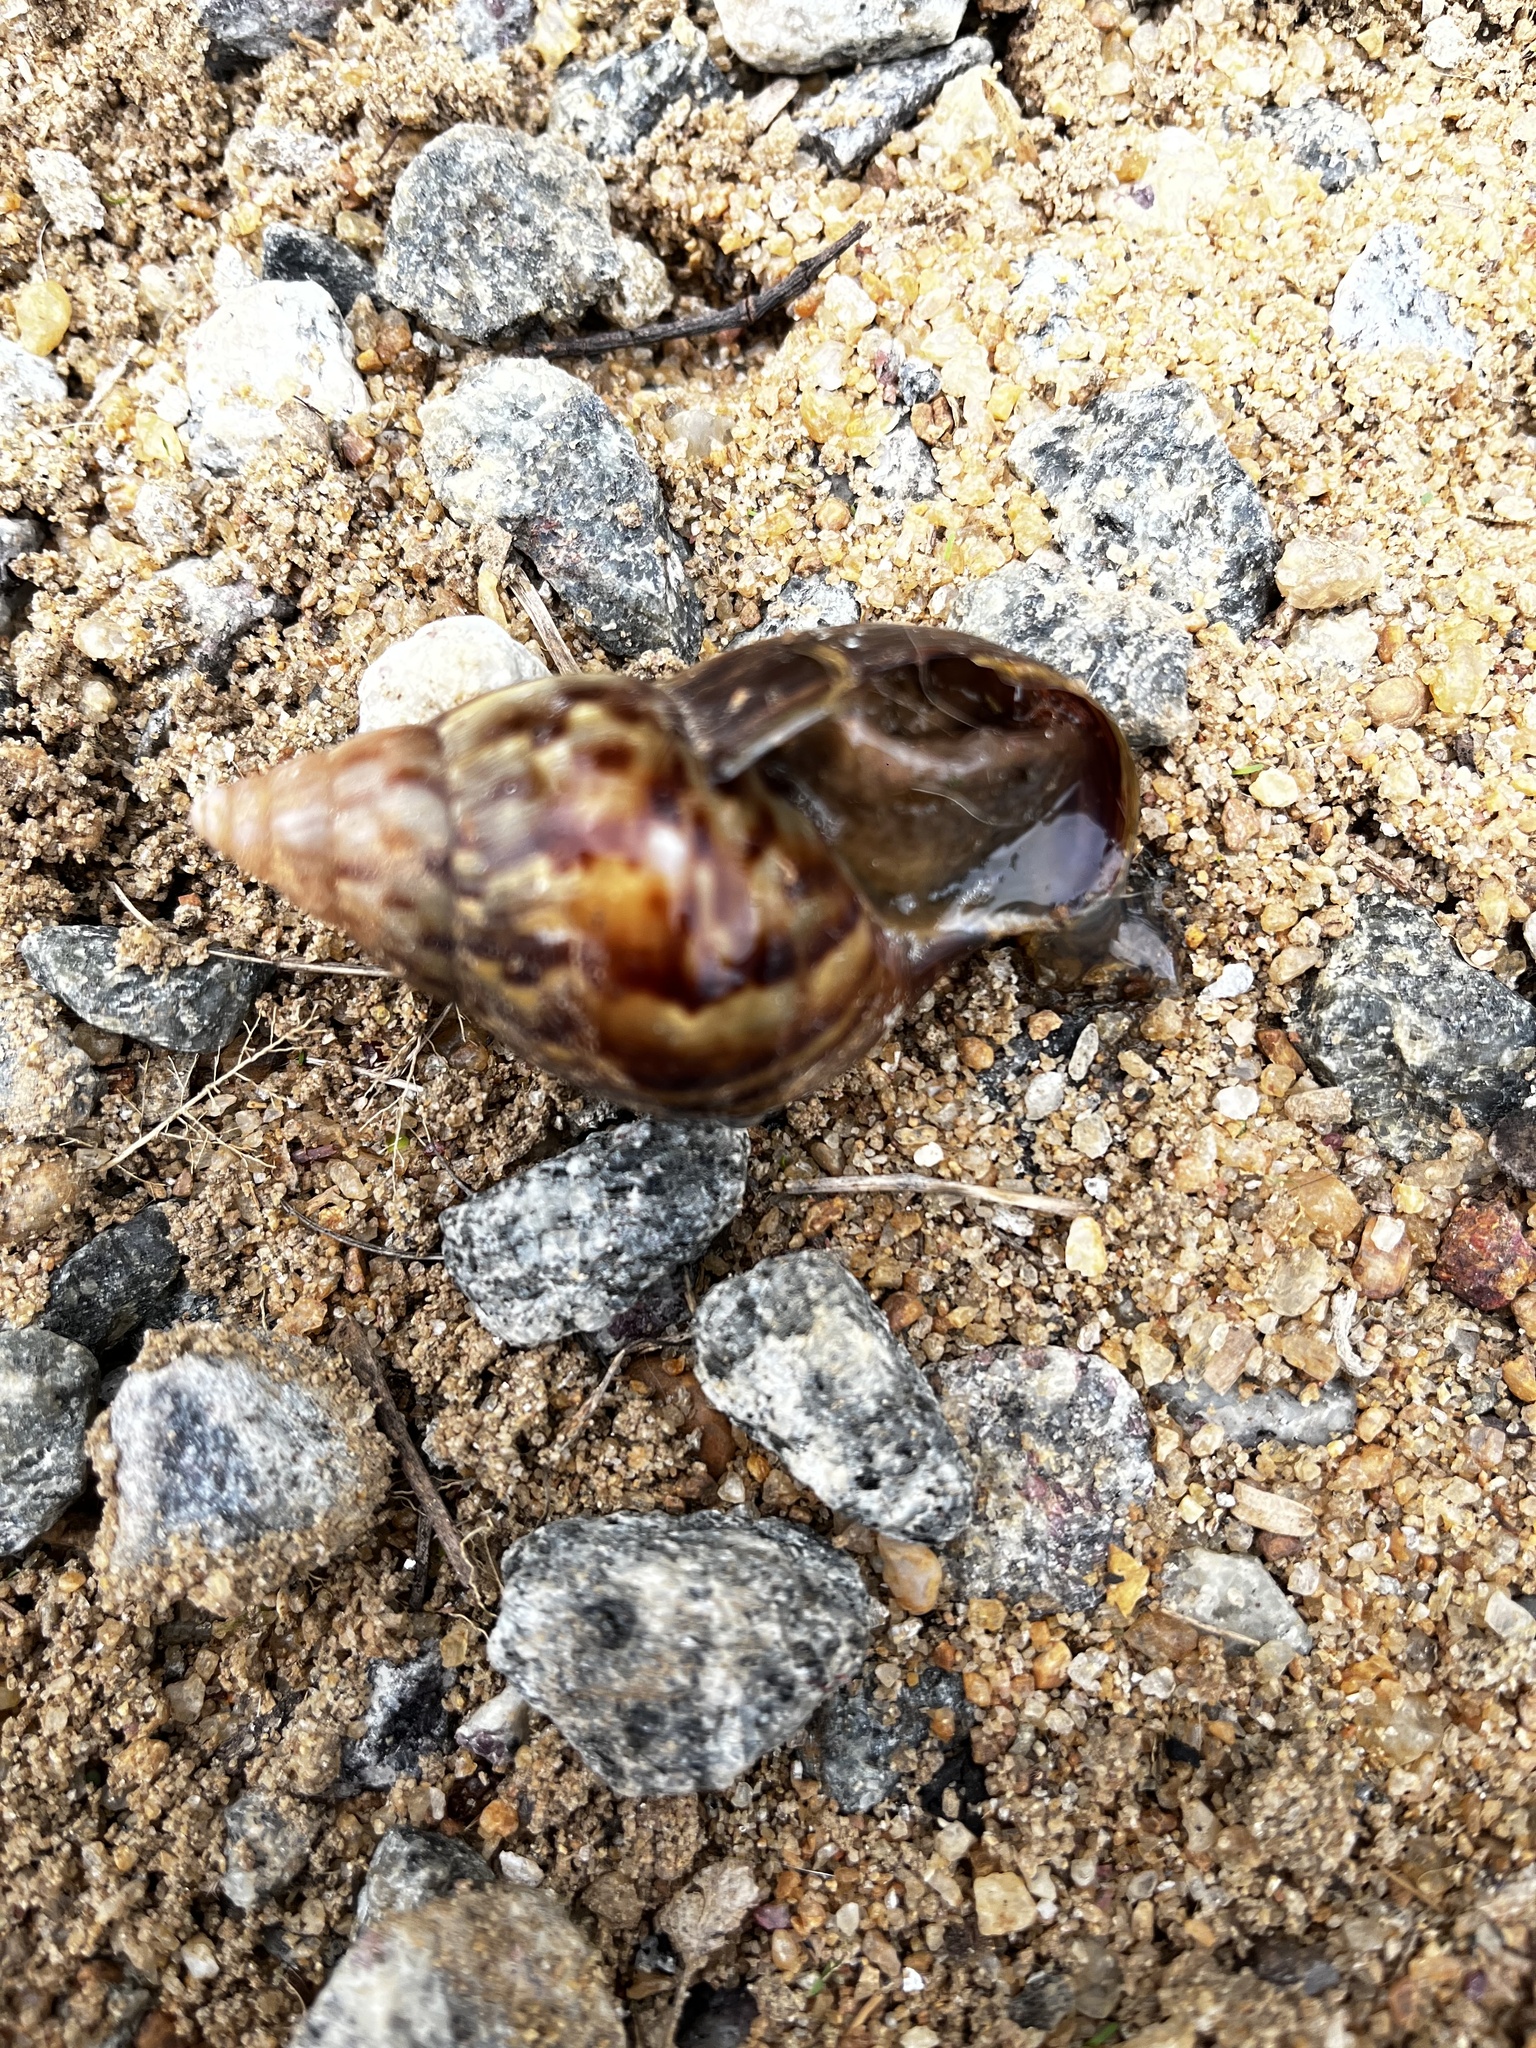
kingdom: Animalia
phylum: Mollusca
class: Gastropoda
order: Stylommatophora
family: Achatinidae
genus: Lissachatina
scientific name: Lissachatina fulica
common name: Giant african snail
